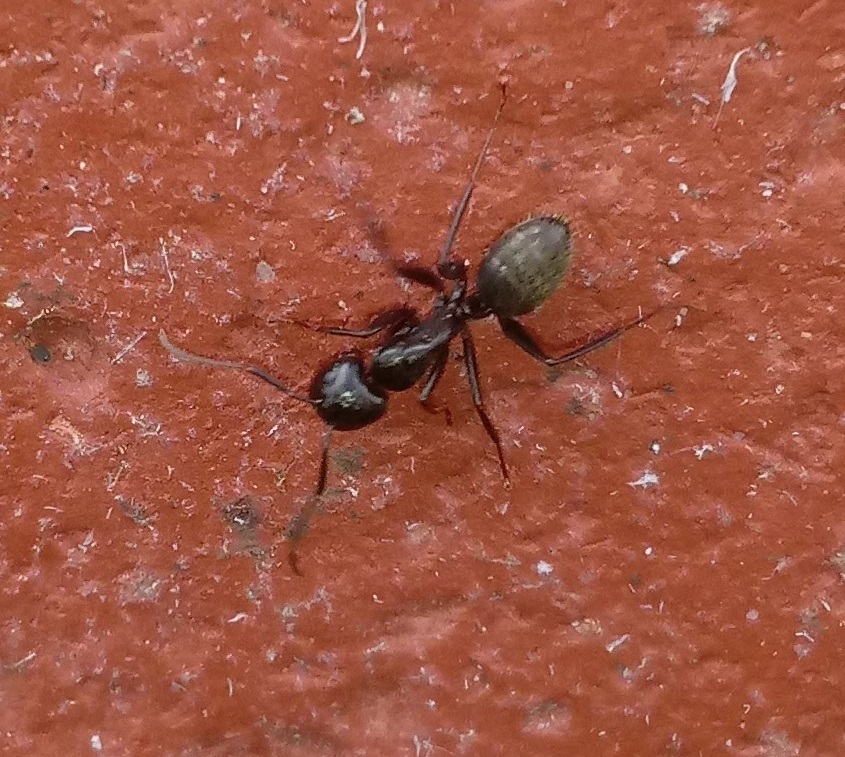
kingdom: Animalia
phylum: Arthropoda
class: Insecta
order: Hymenoptera
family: Formicidae
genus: Camponotus
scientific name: Camponotus pennsylvanicus
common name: Black carpenter ant
